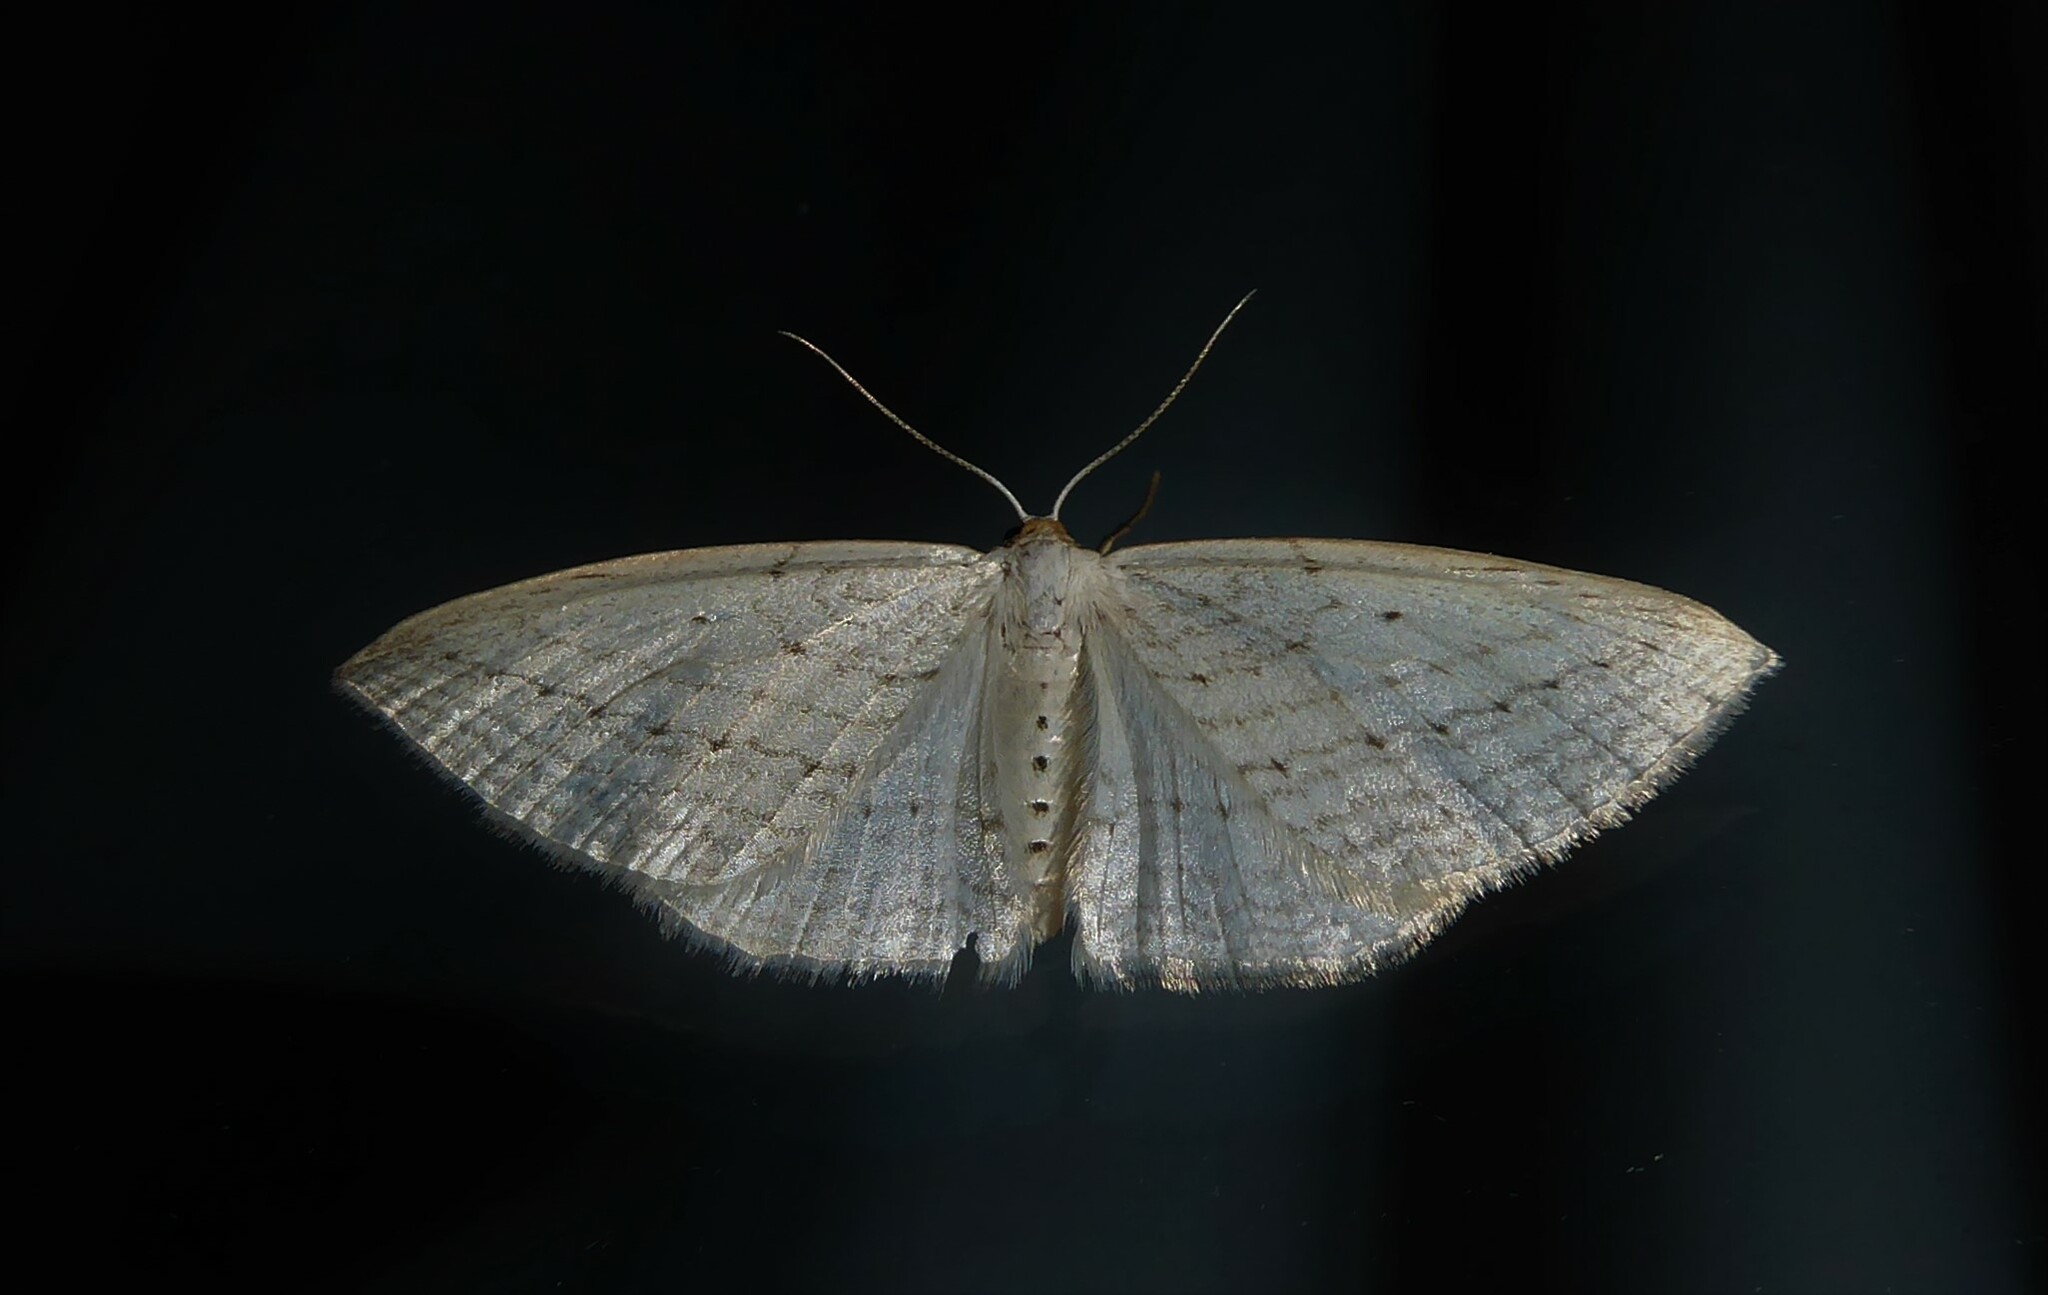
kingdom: Animalia
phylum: Arthropoda
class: Insecta
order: Lepidoptera
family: Geometridae
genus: Orthoclydon
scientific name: Orthoclydon praefectata
